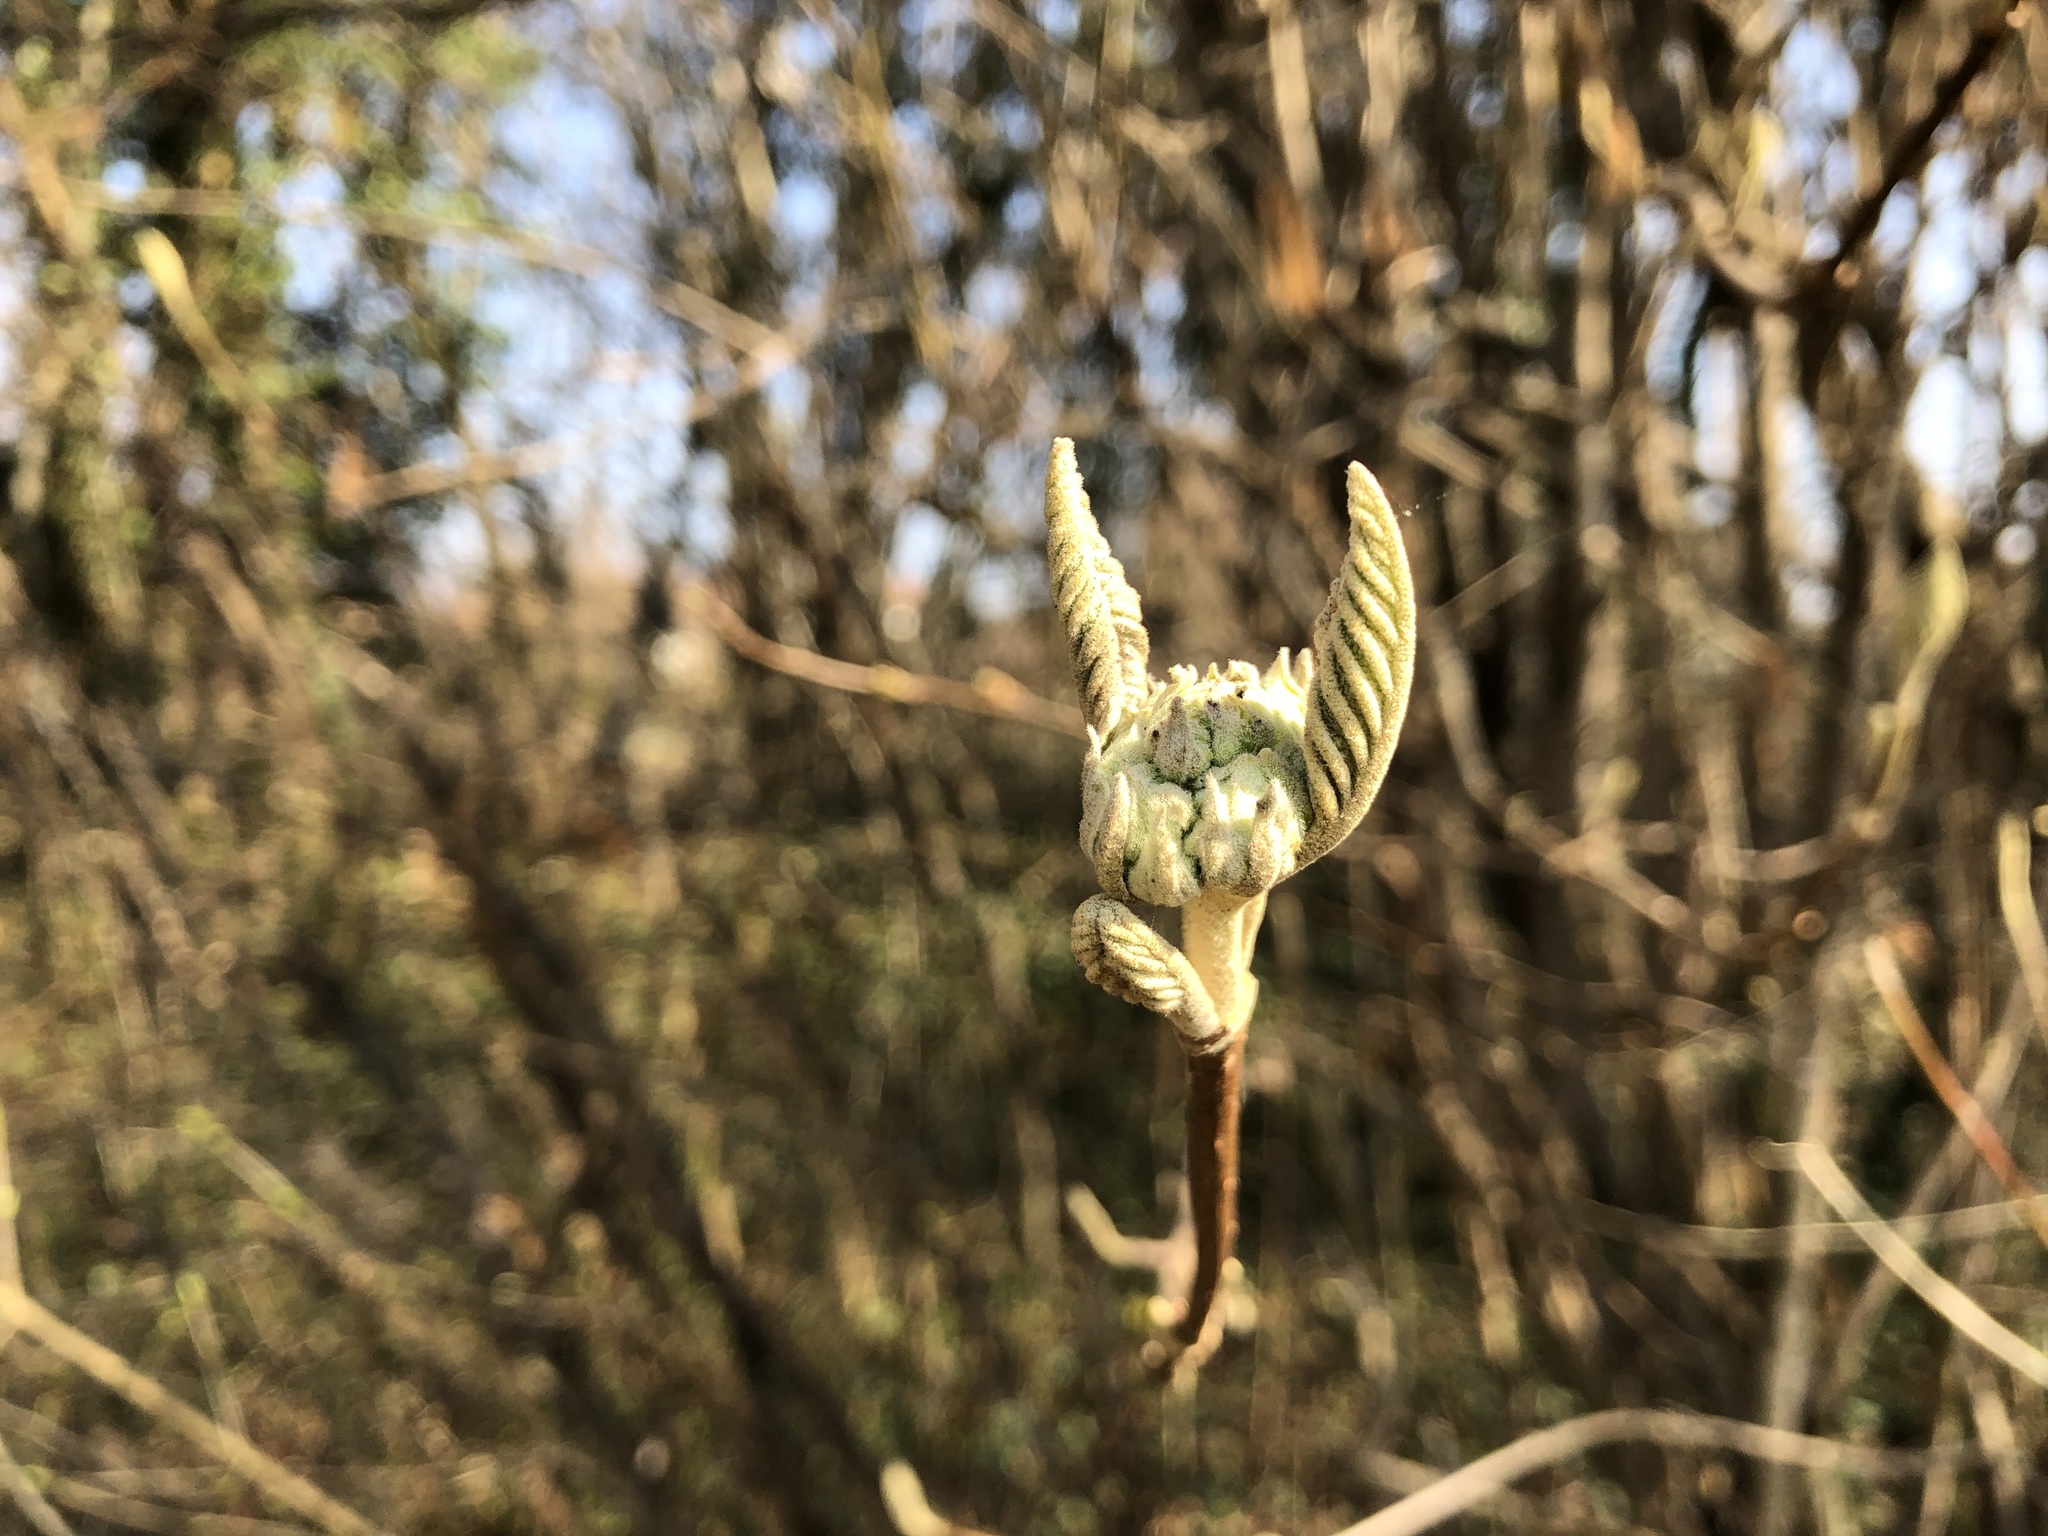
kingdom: Plantae
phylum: Tracheophyta
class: Magnoliopsida
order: Dipsacales
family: Viburnaceae
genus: Viburnum
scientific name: Viburnum lantana
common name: Wayfaring tree
